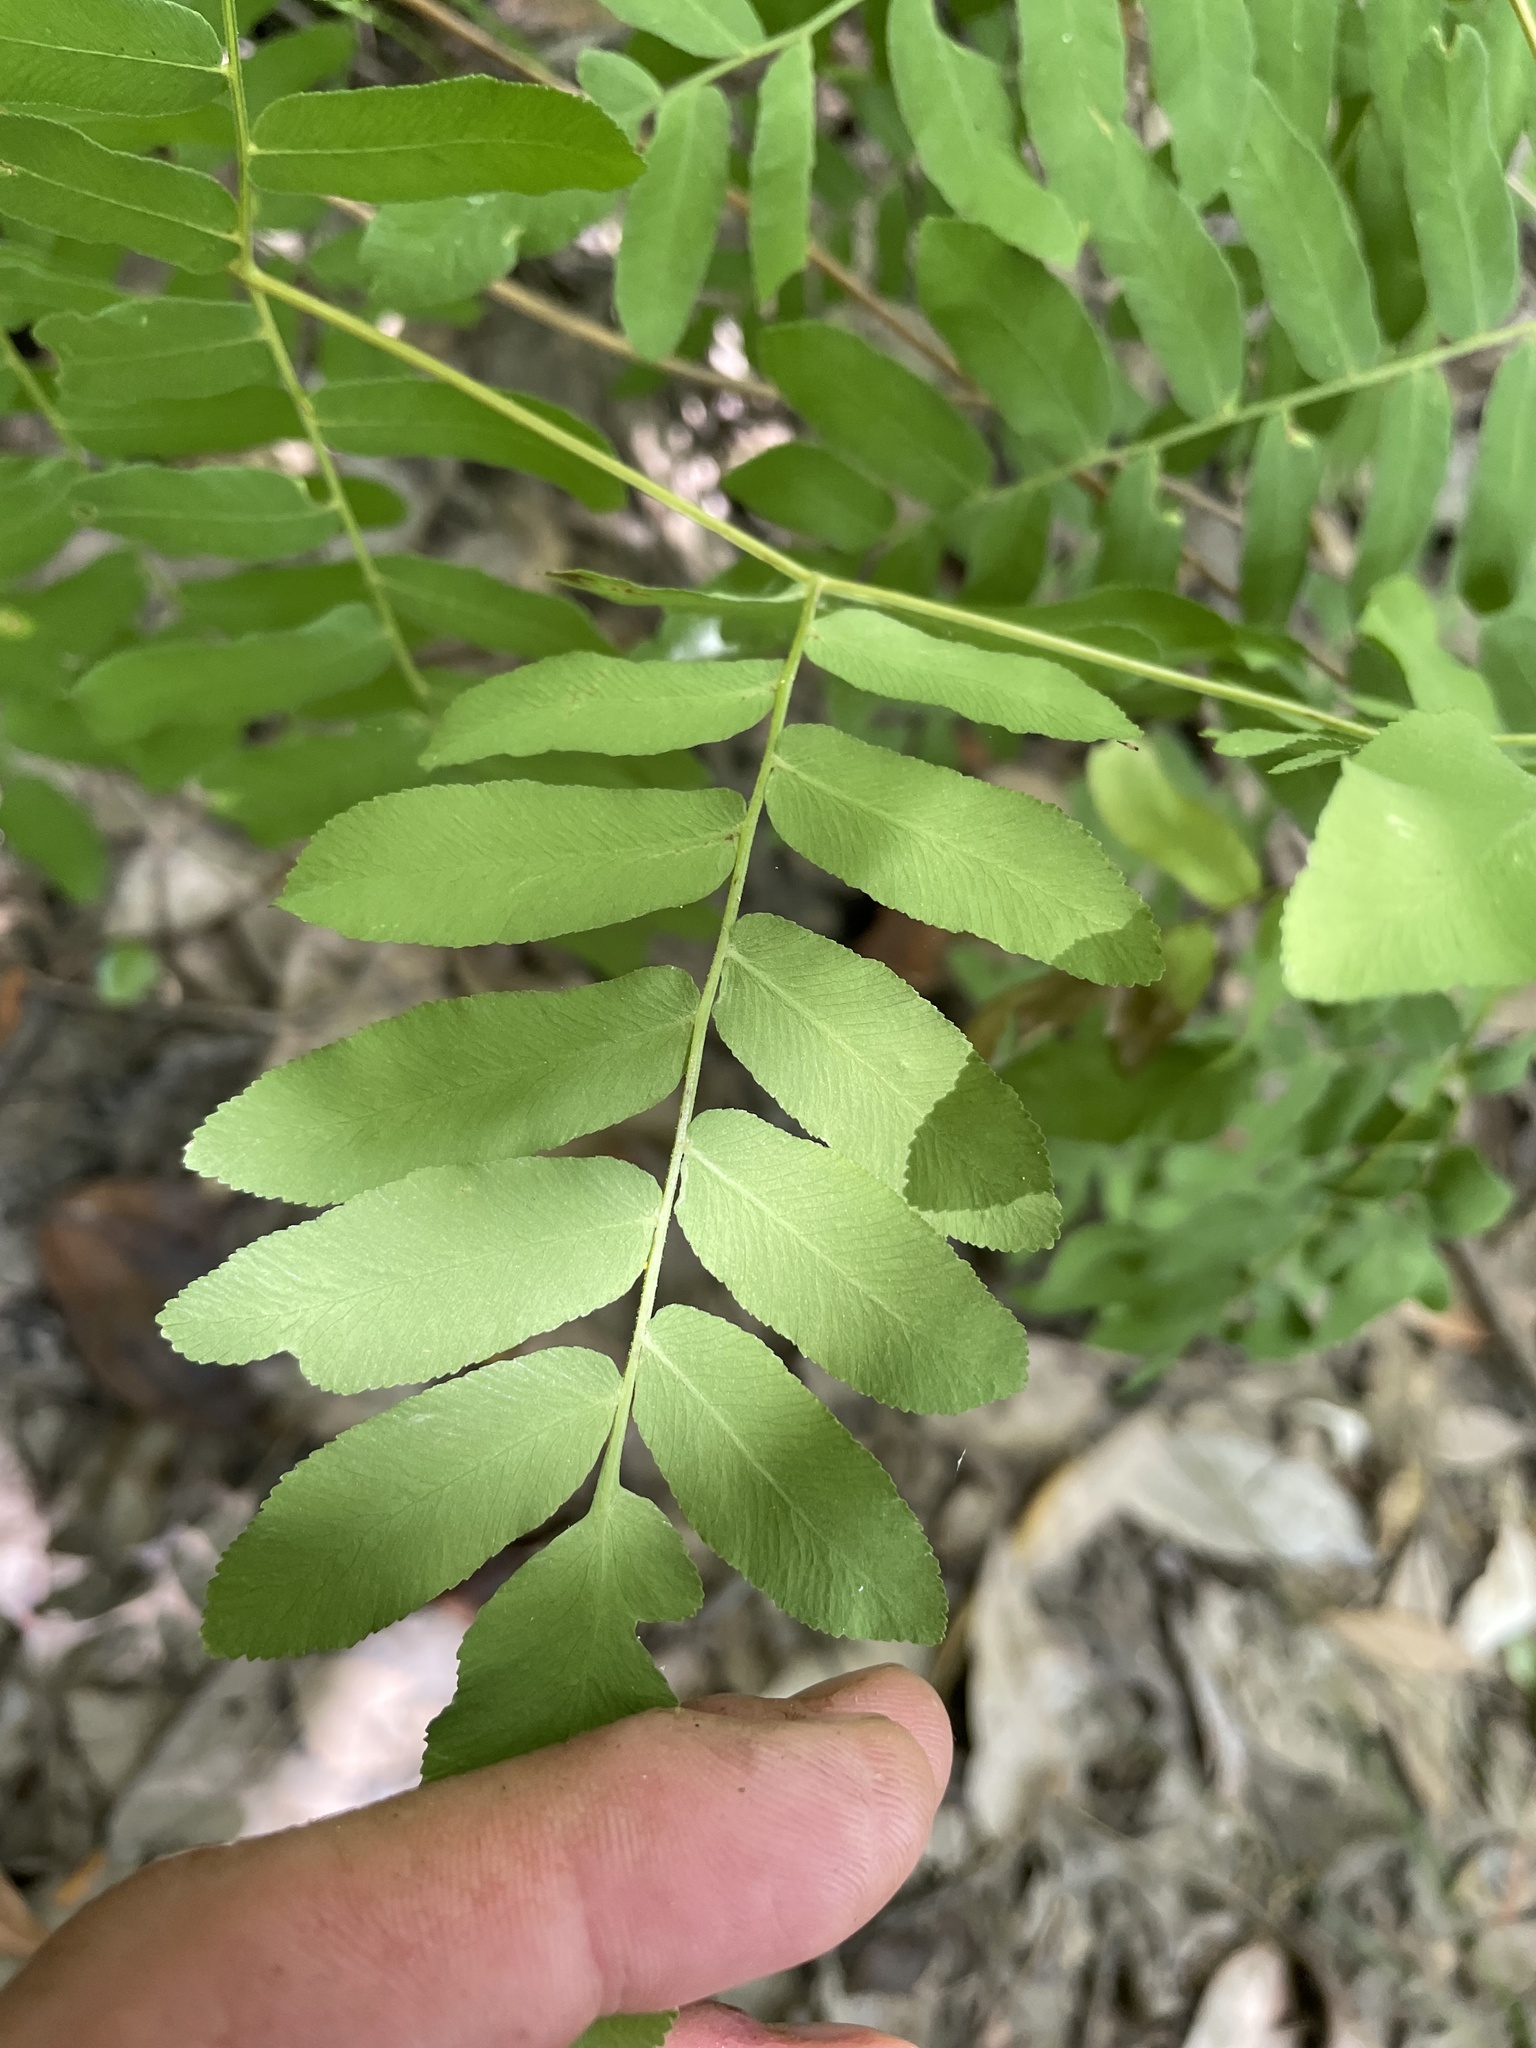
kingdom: Plantae
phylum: Tracheophyta
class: Polypodiopsida
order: Osmundales
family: Osmundaceae
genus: Osmunda
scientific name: Osmunda spectabilis
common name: American royal fern
